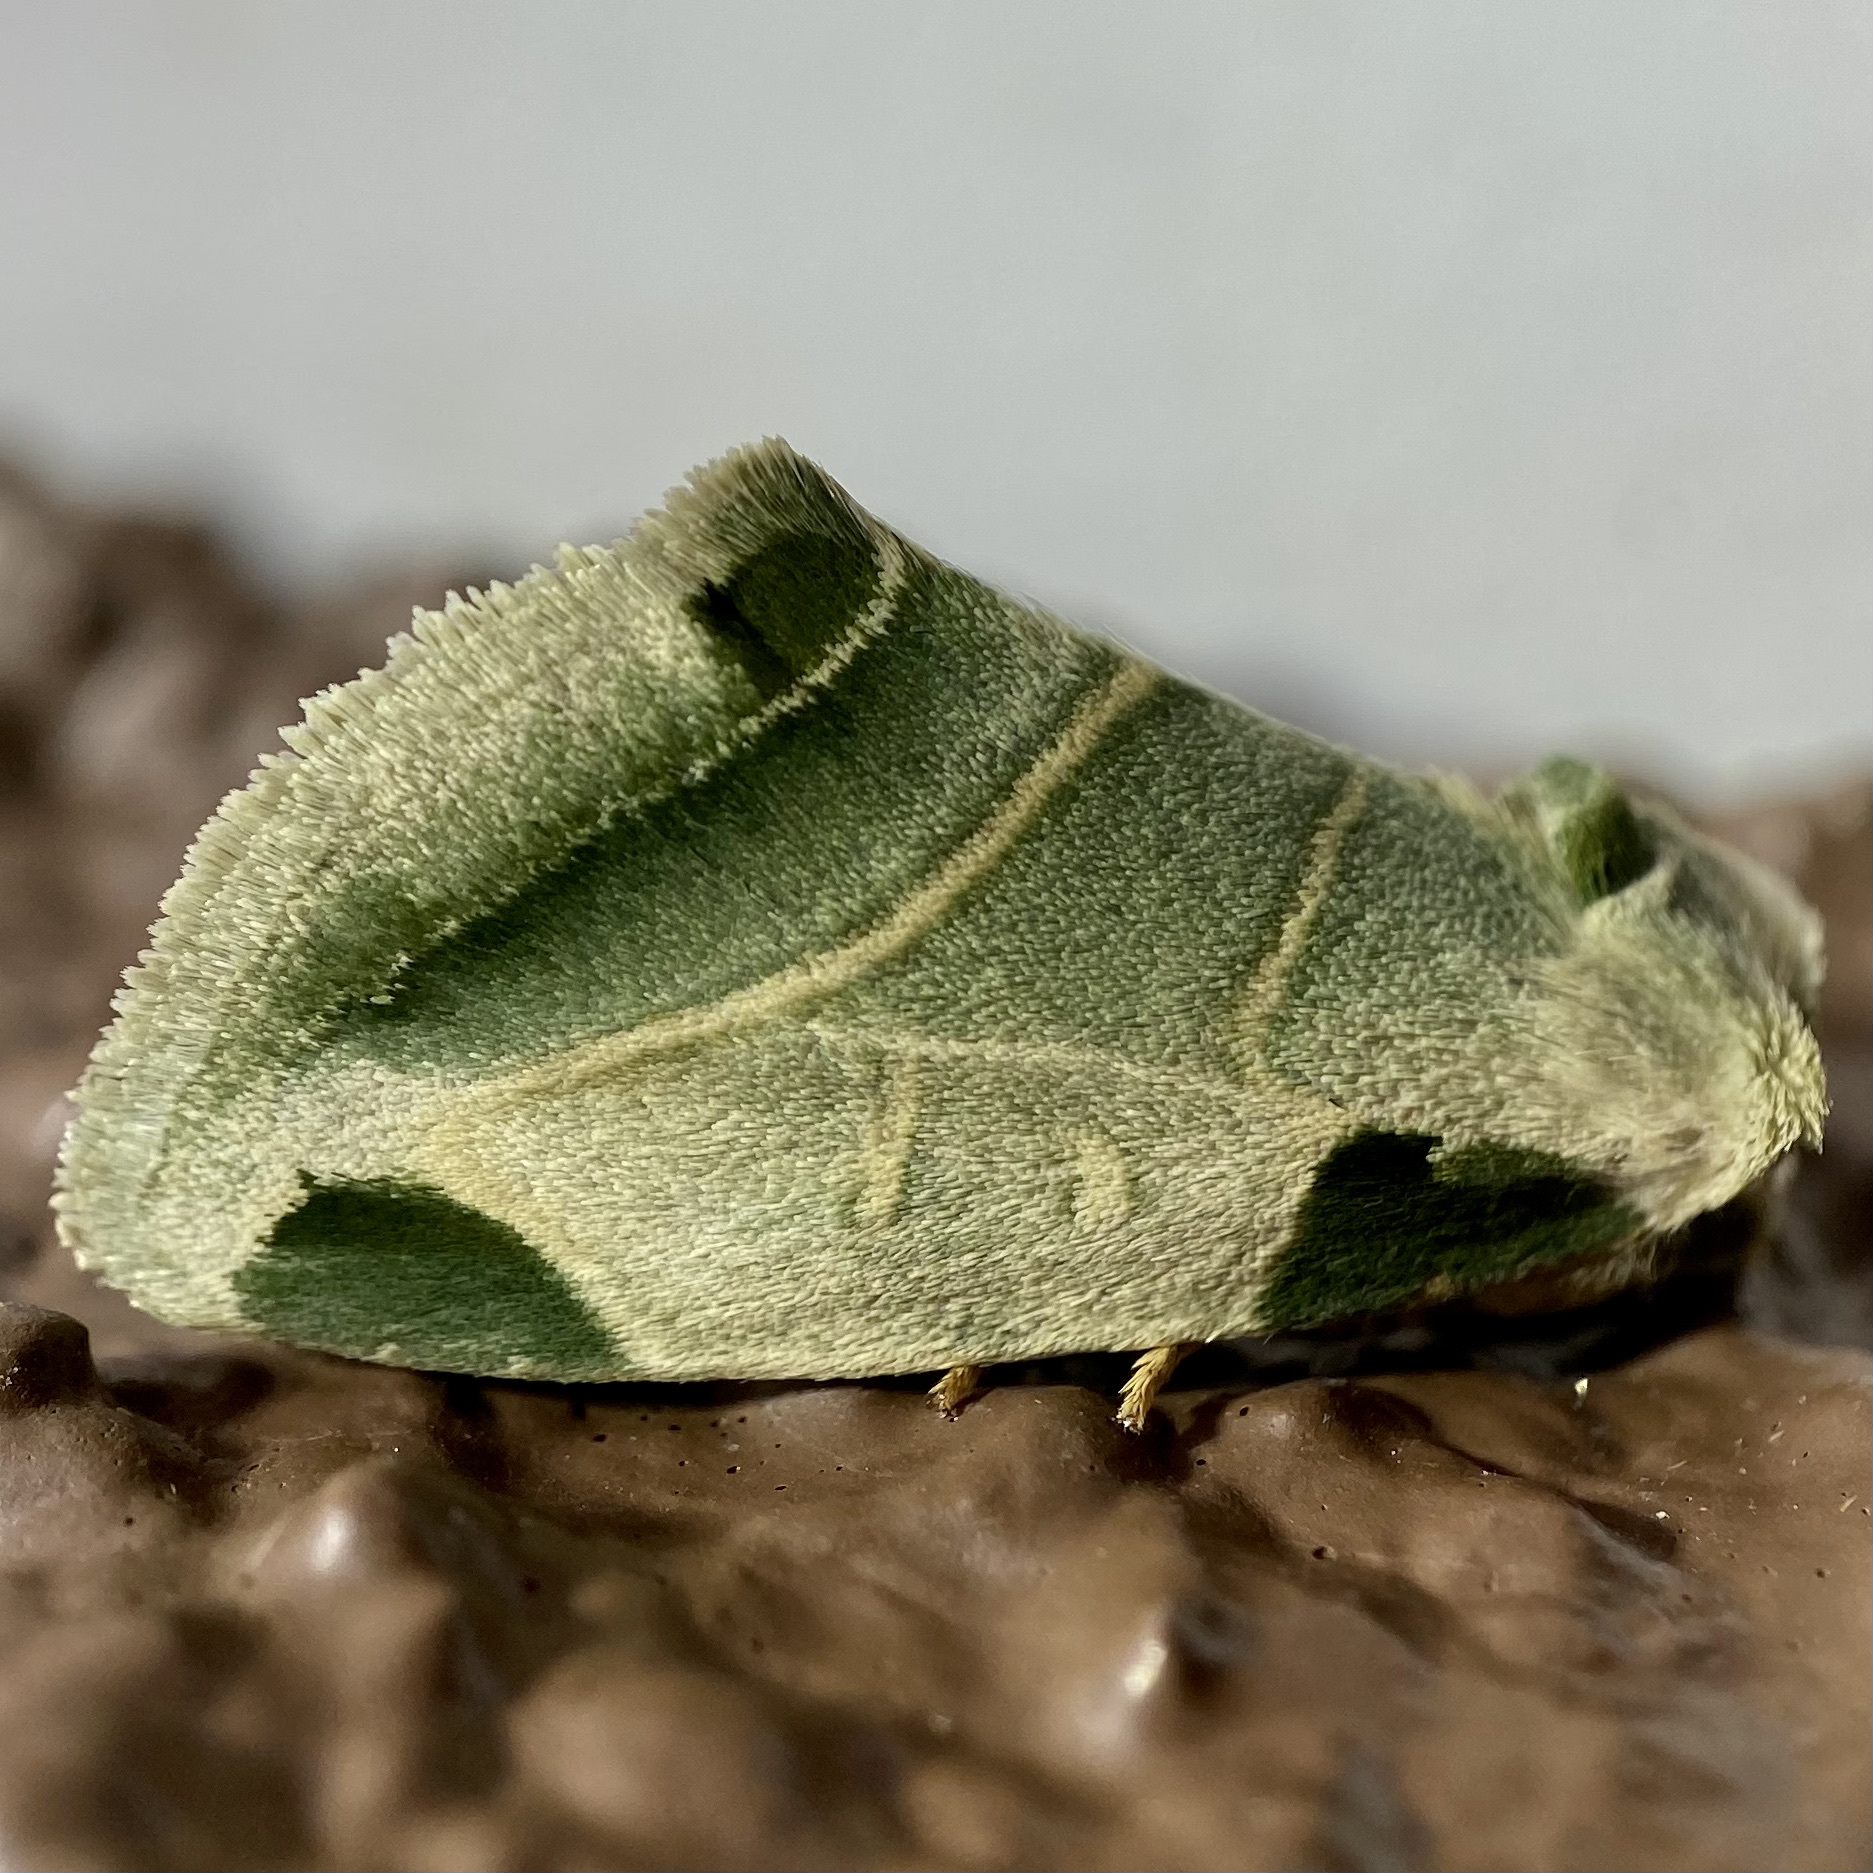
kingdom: Animalia
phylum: Arthropoda
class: Insecta
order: Lepidoptera
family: Noctuidae
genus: Heminocloa
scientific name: Heminocloa mirabilis
